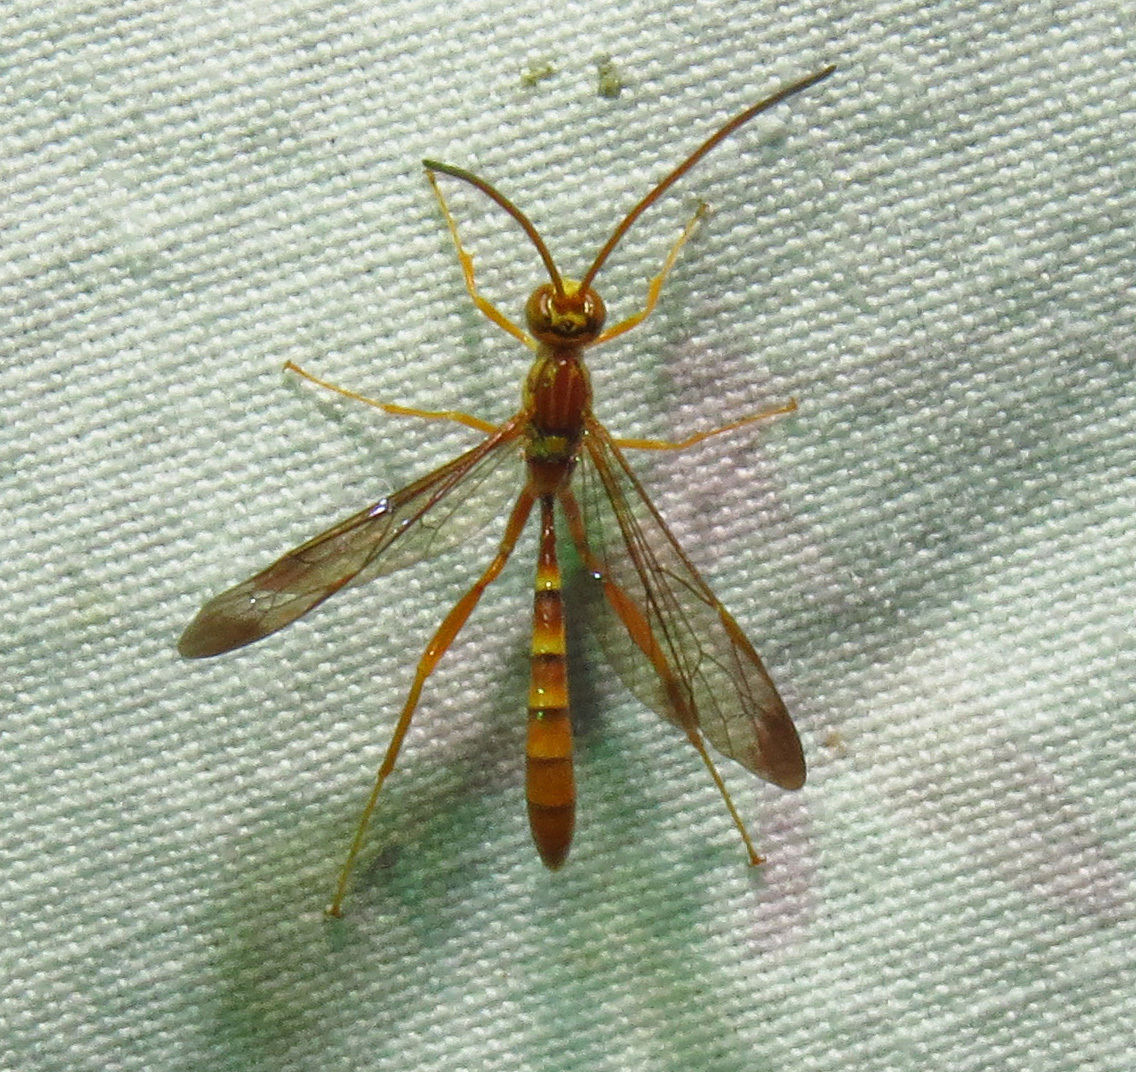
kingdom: Animalia
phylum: Arthropoda
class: Insecta
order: Hymenoptera
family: Ichneumonidae
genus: Labena
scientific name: Labena grallator
